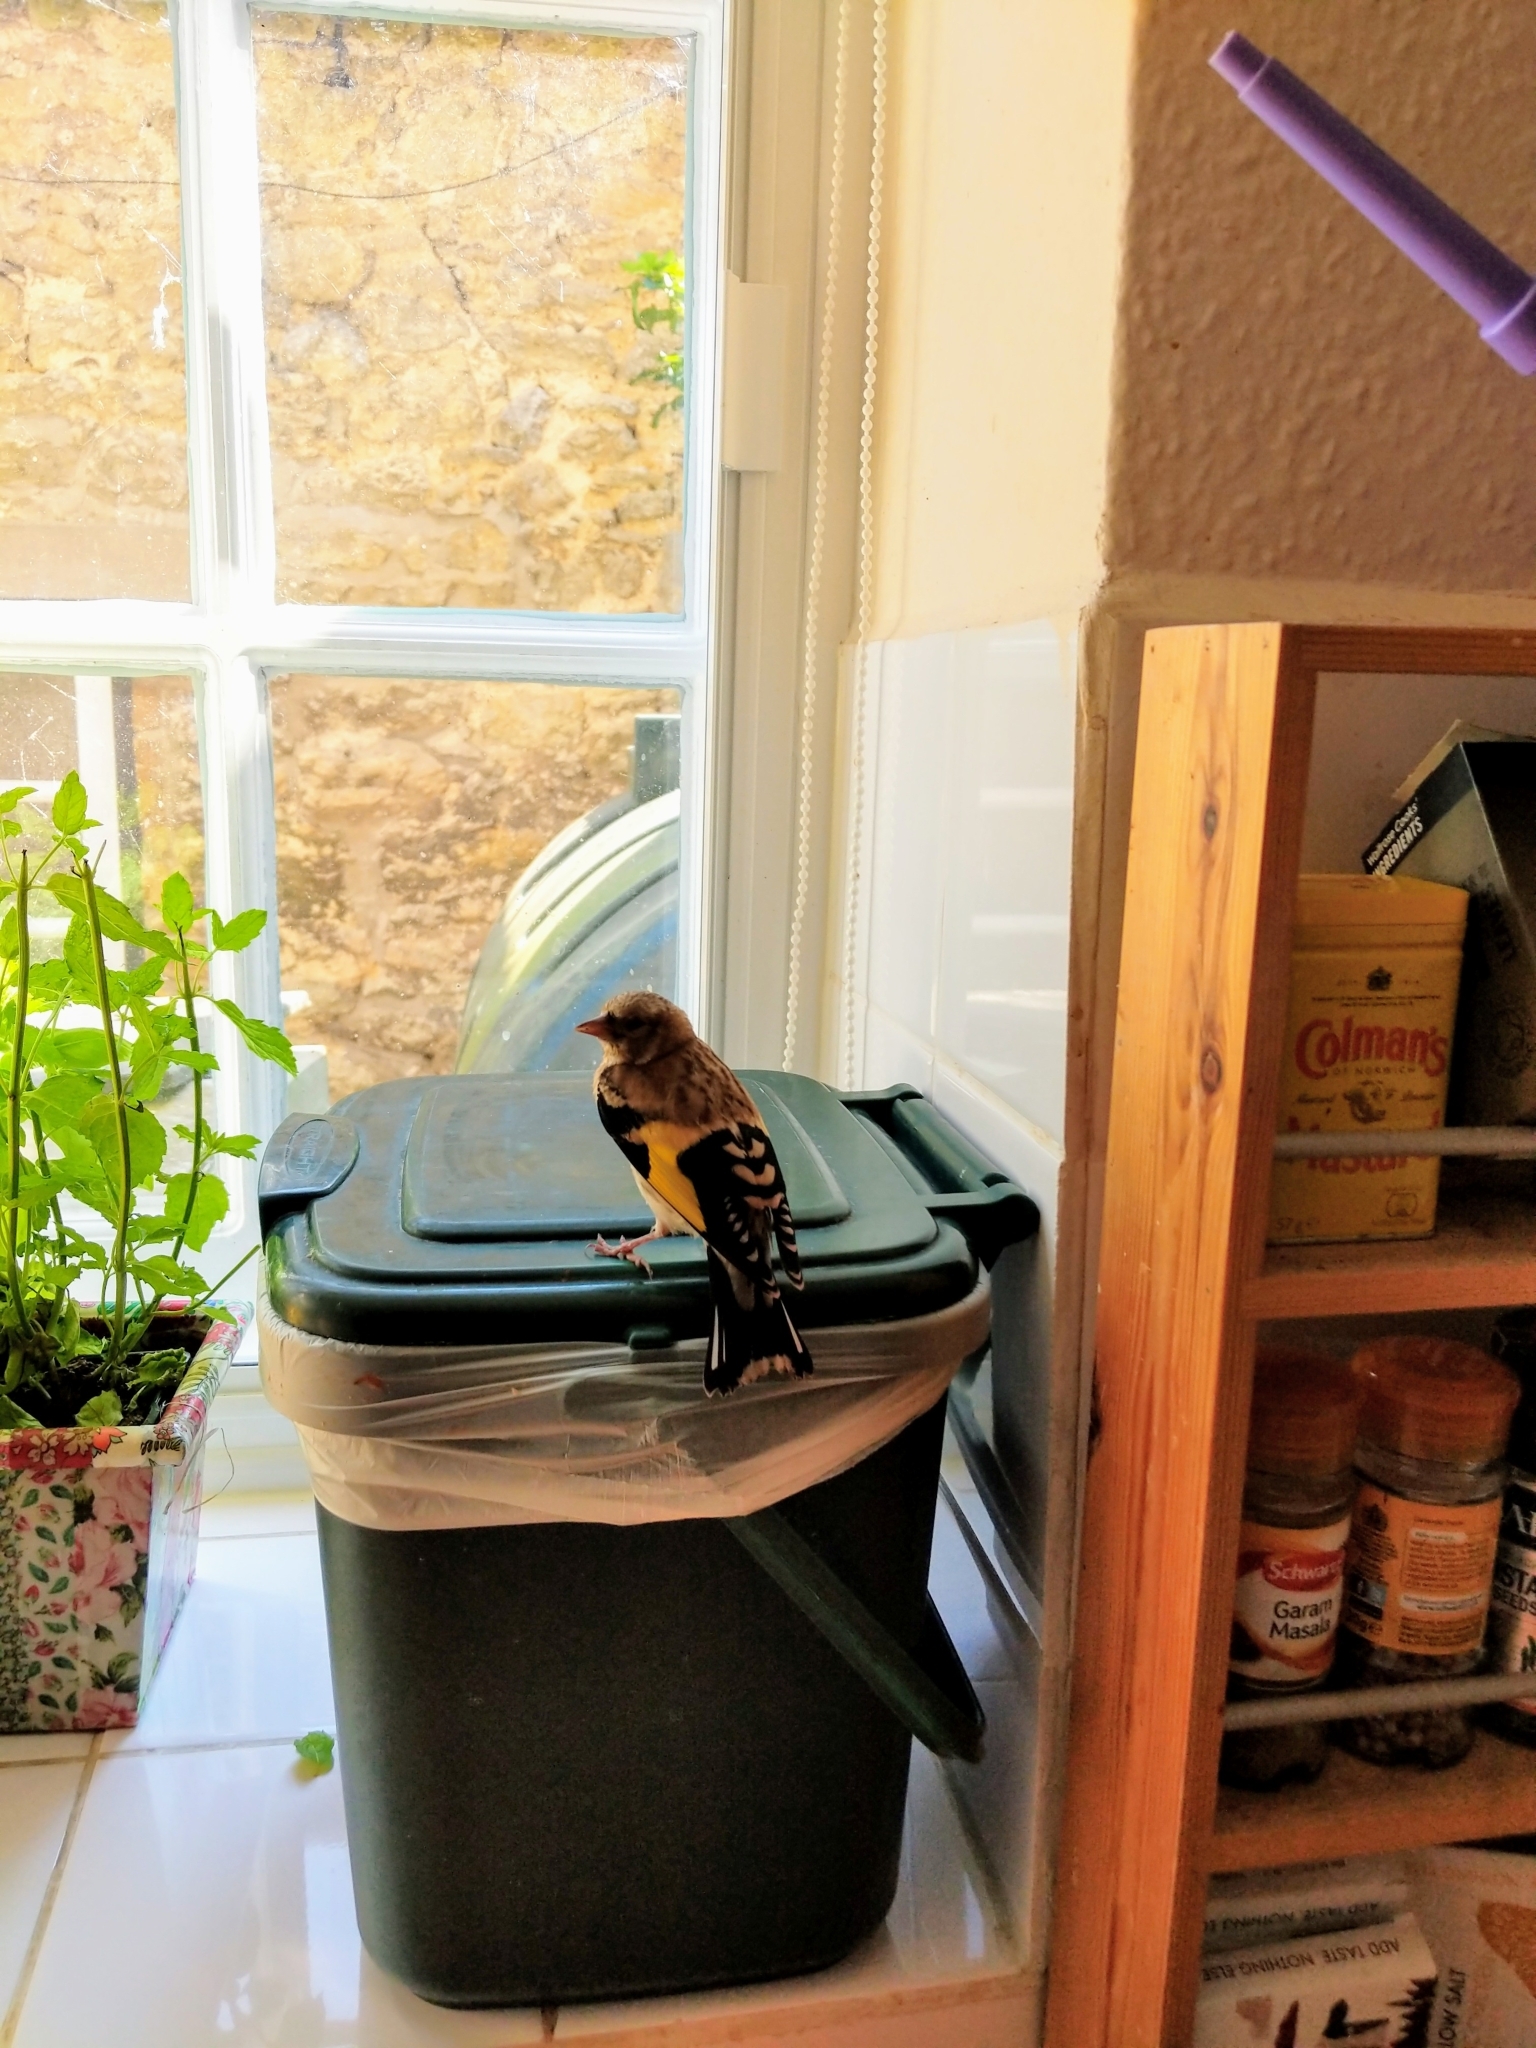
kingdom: Animalia
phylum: Chordata
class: Aves
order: Passeriformes
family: Fringillidae
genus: Carduelis
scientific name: Carduelis carduelis
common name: European goldfinch
